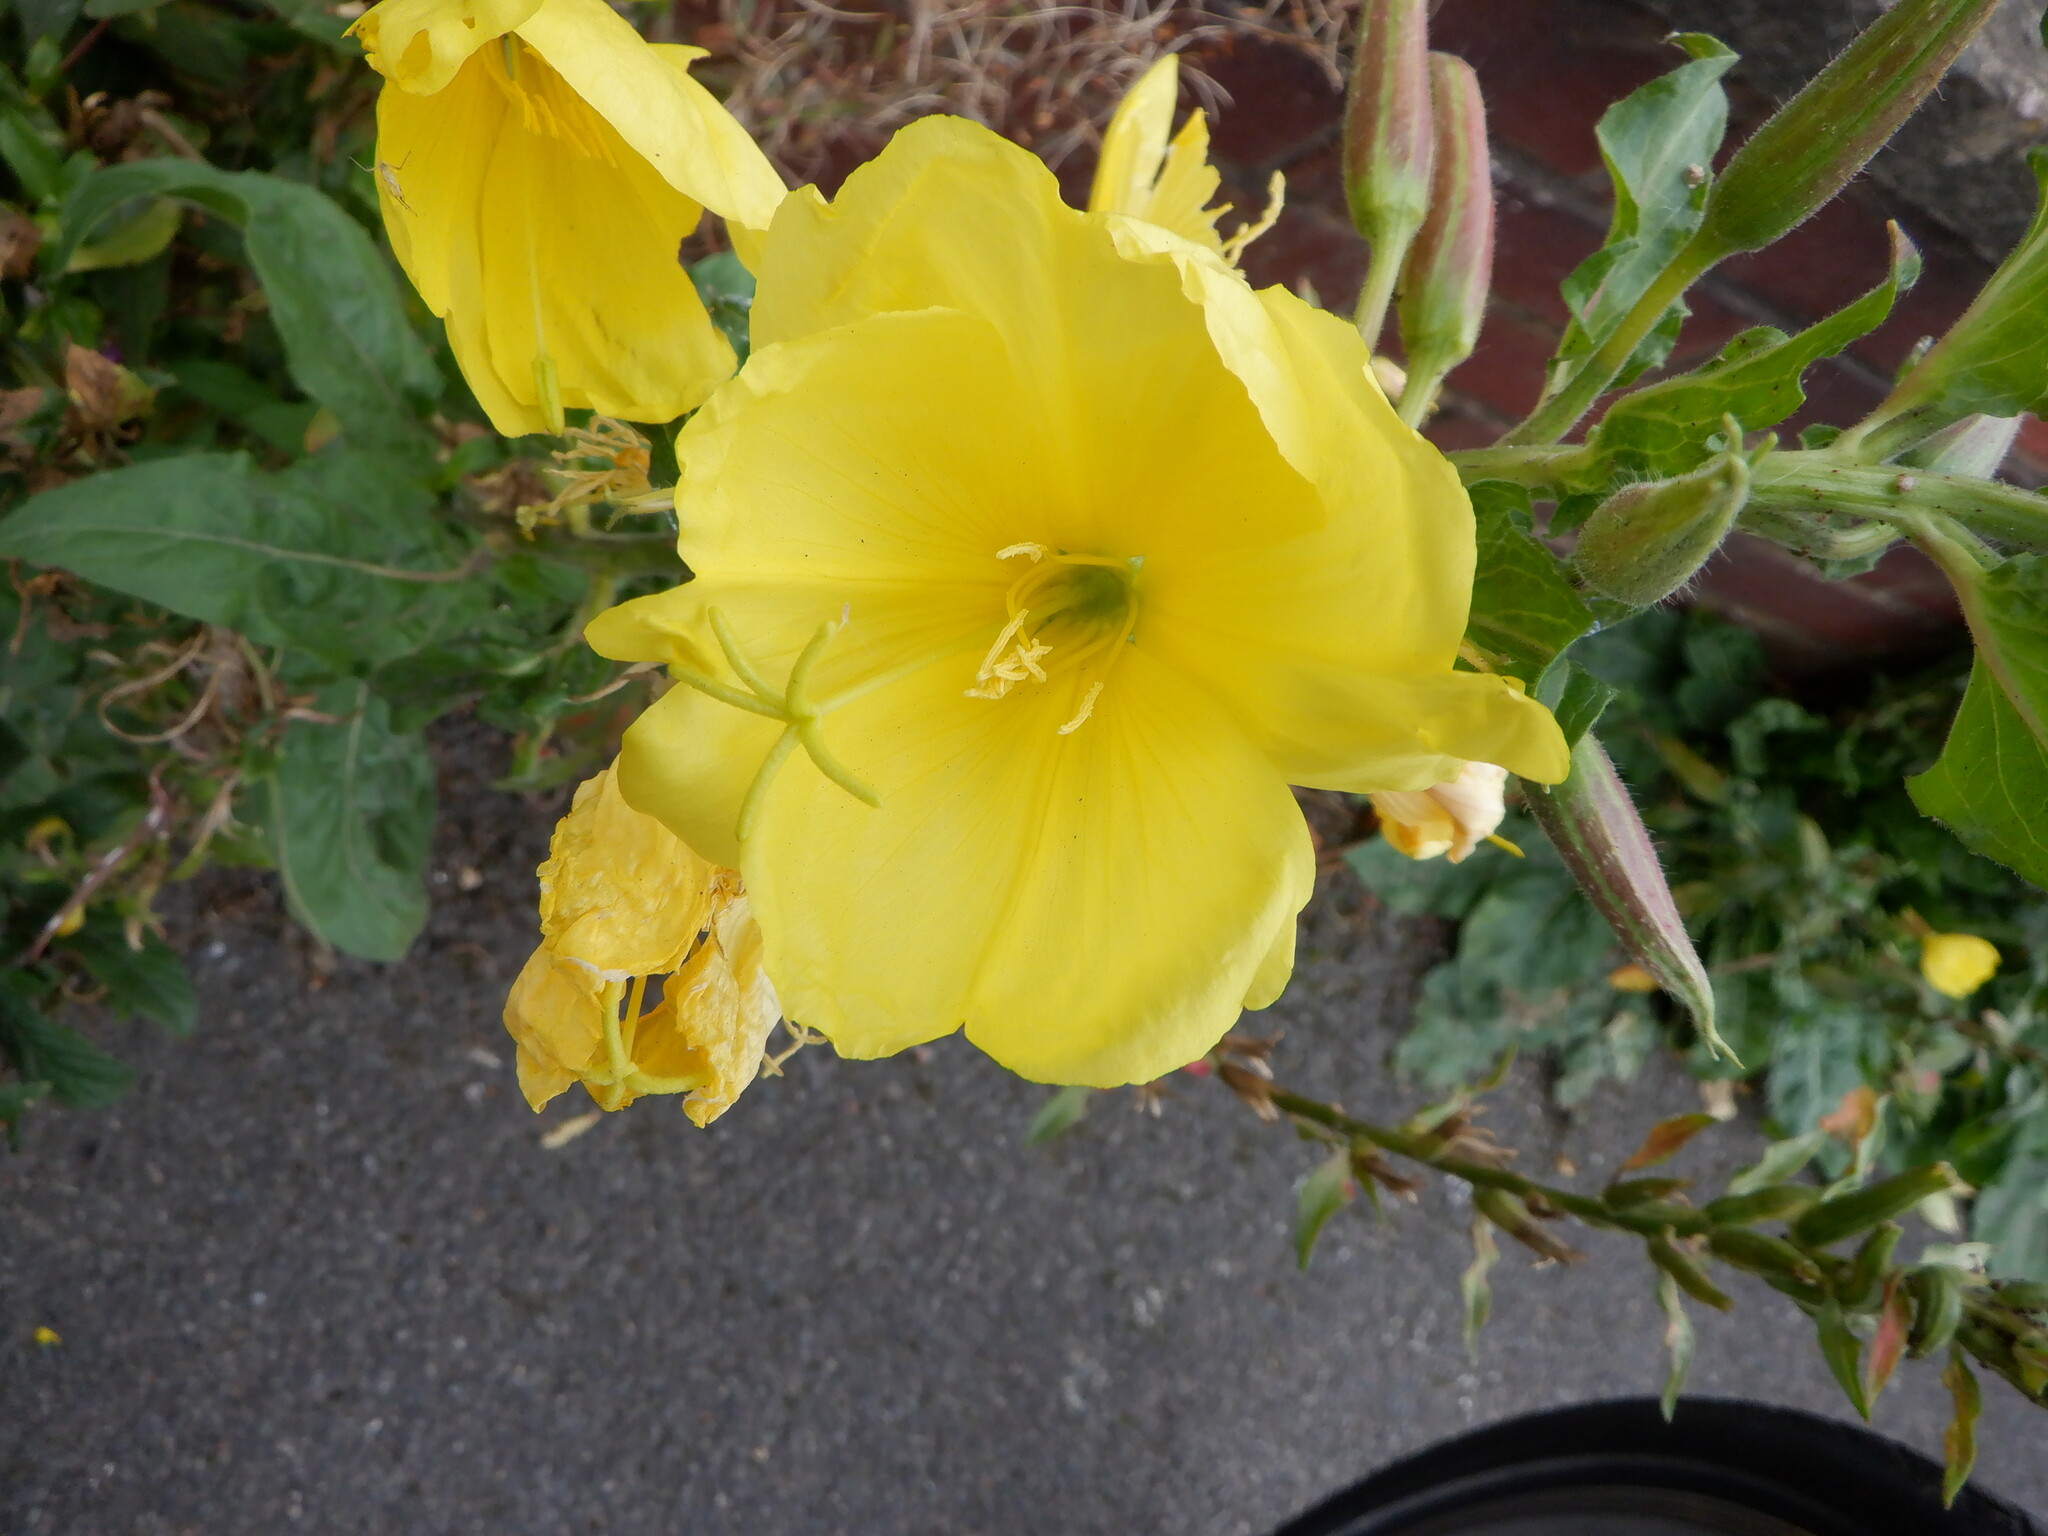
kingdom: Plantae
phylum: Tracheophyta
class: Magnoliopsida
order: Myrtales
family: Onagraceae
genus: Oenothera
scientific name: Oenothera glazioviana
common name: Large-flowered evening-primrose
